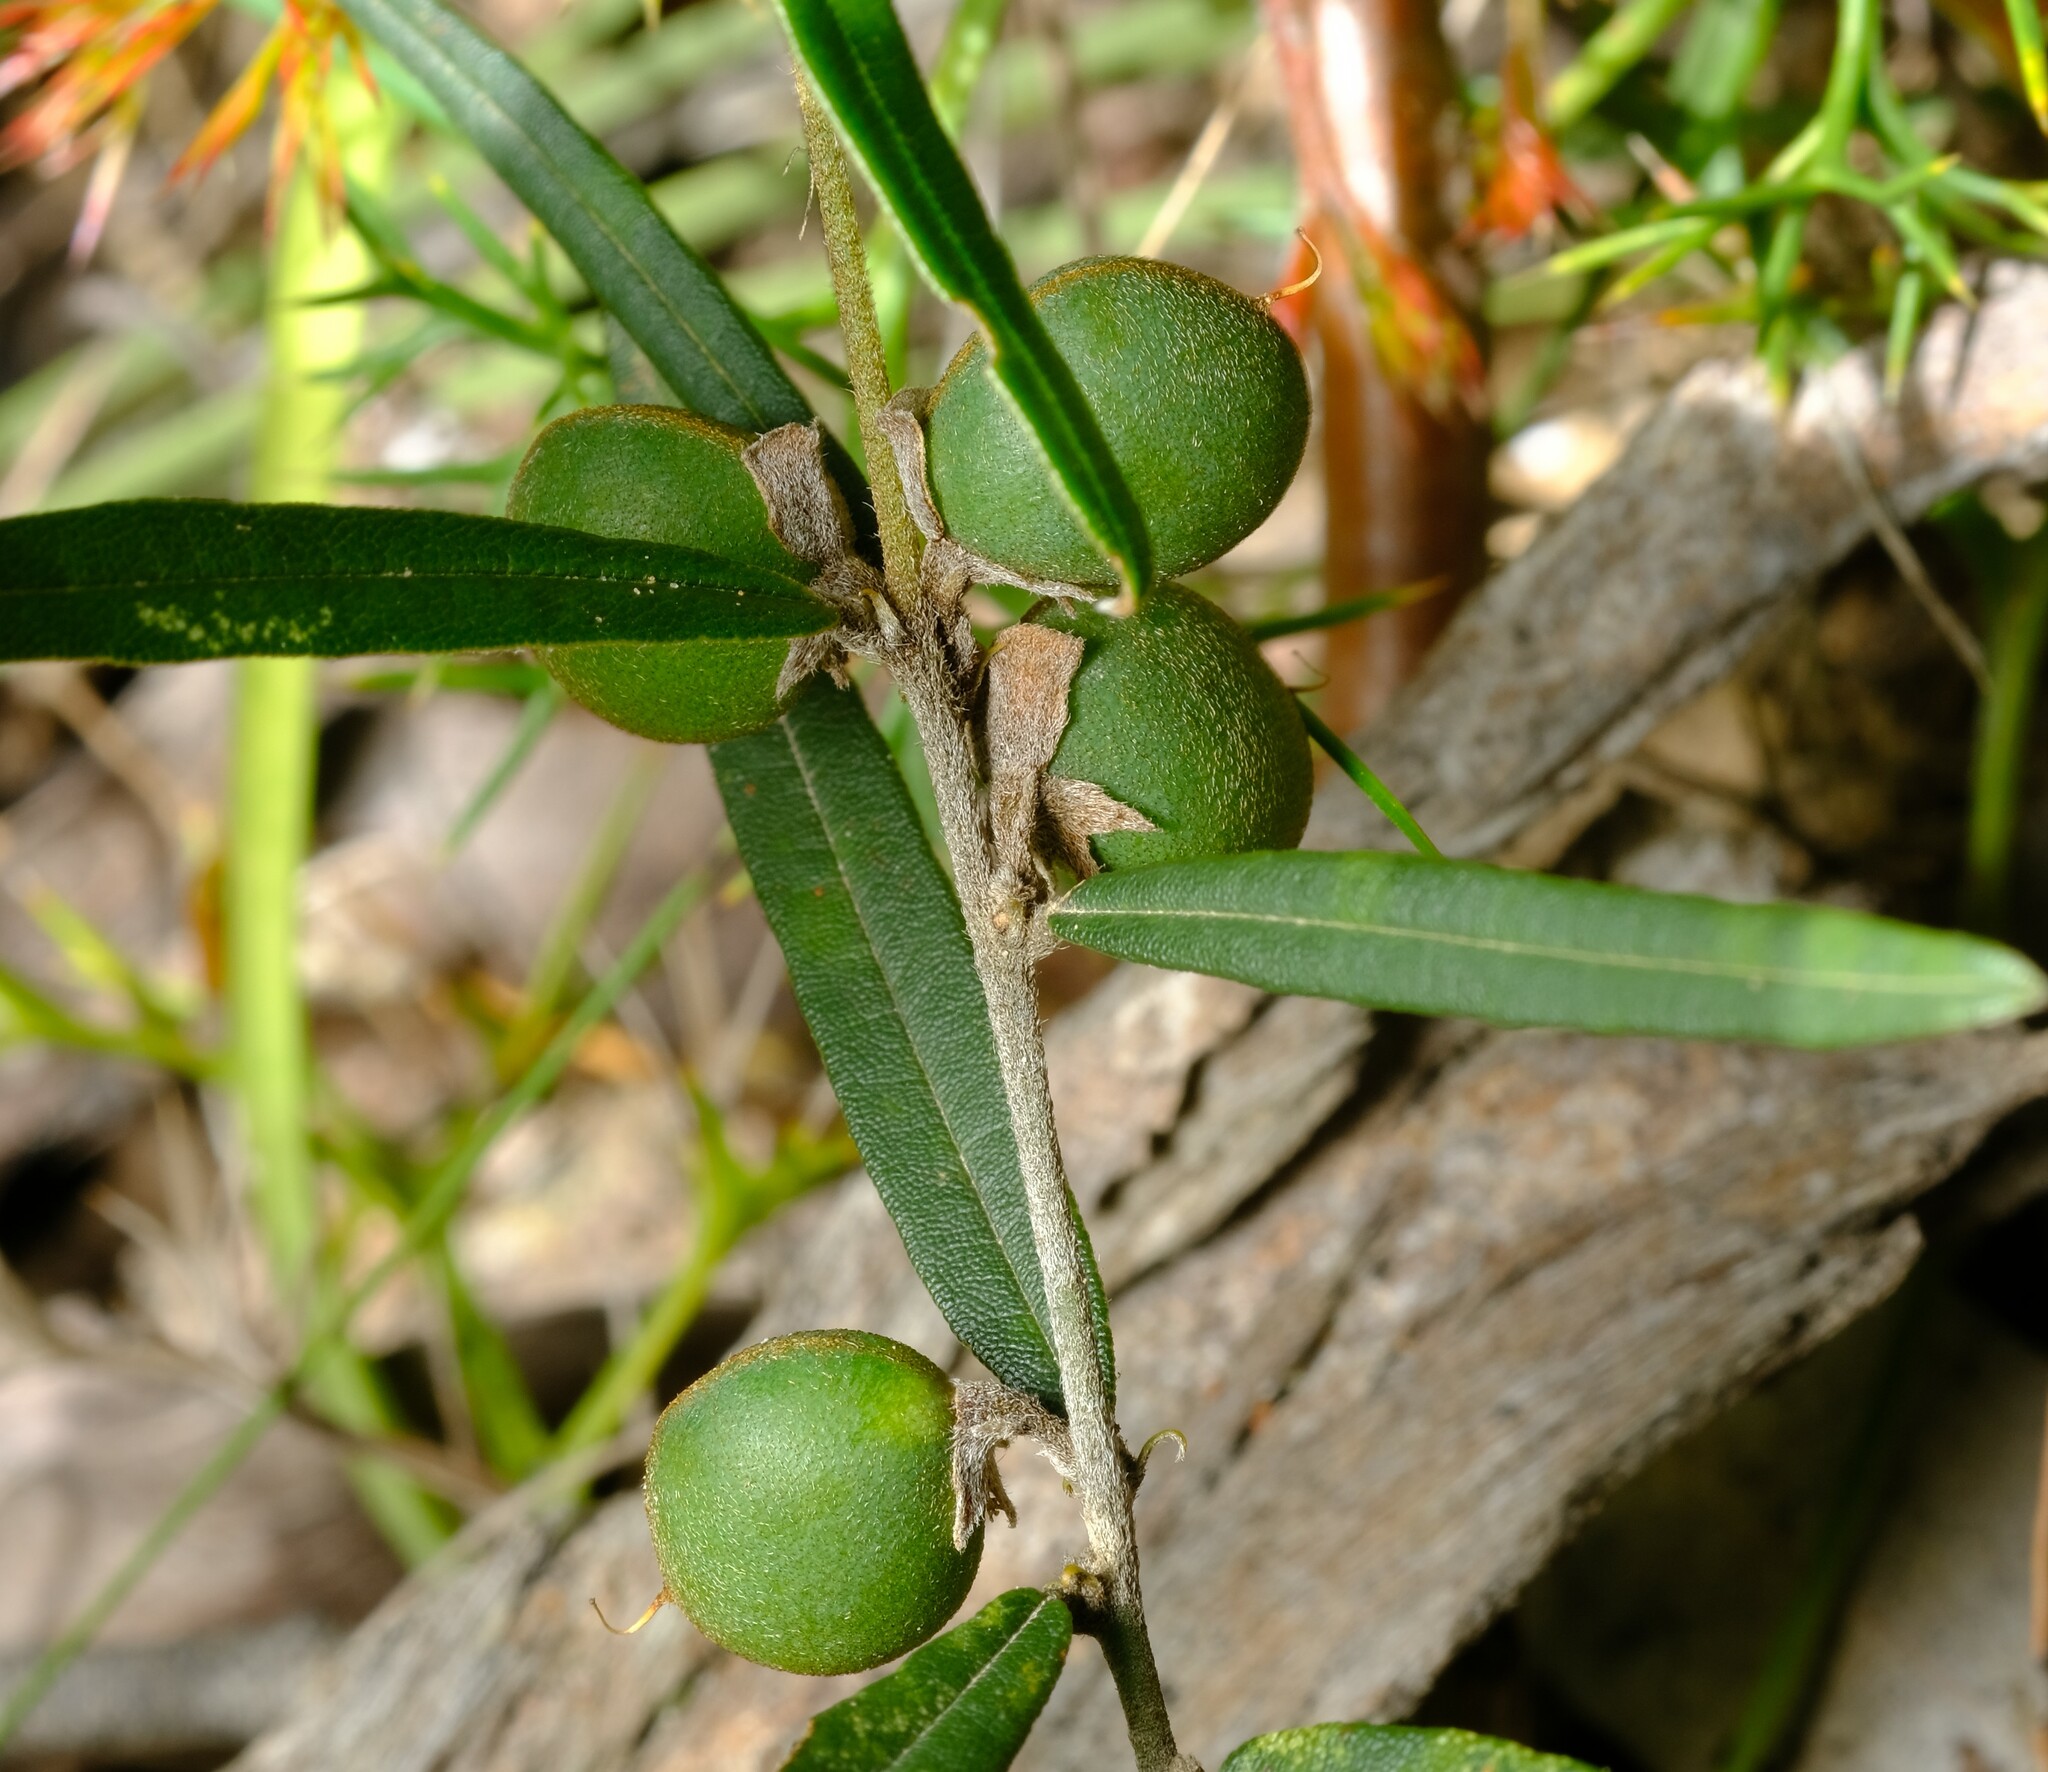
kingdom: Plantae
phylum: Tracheophyta
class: Magnoliopsida
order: Fabales
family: Fabaceae
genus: Hovea
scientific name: Hovea heterophylla
